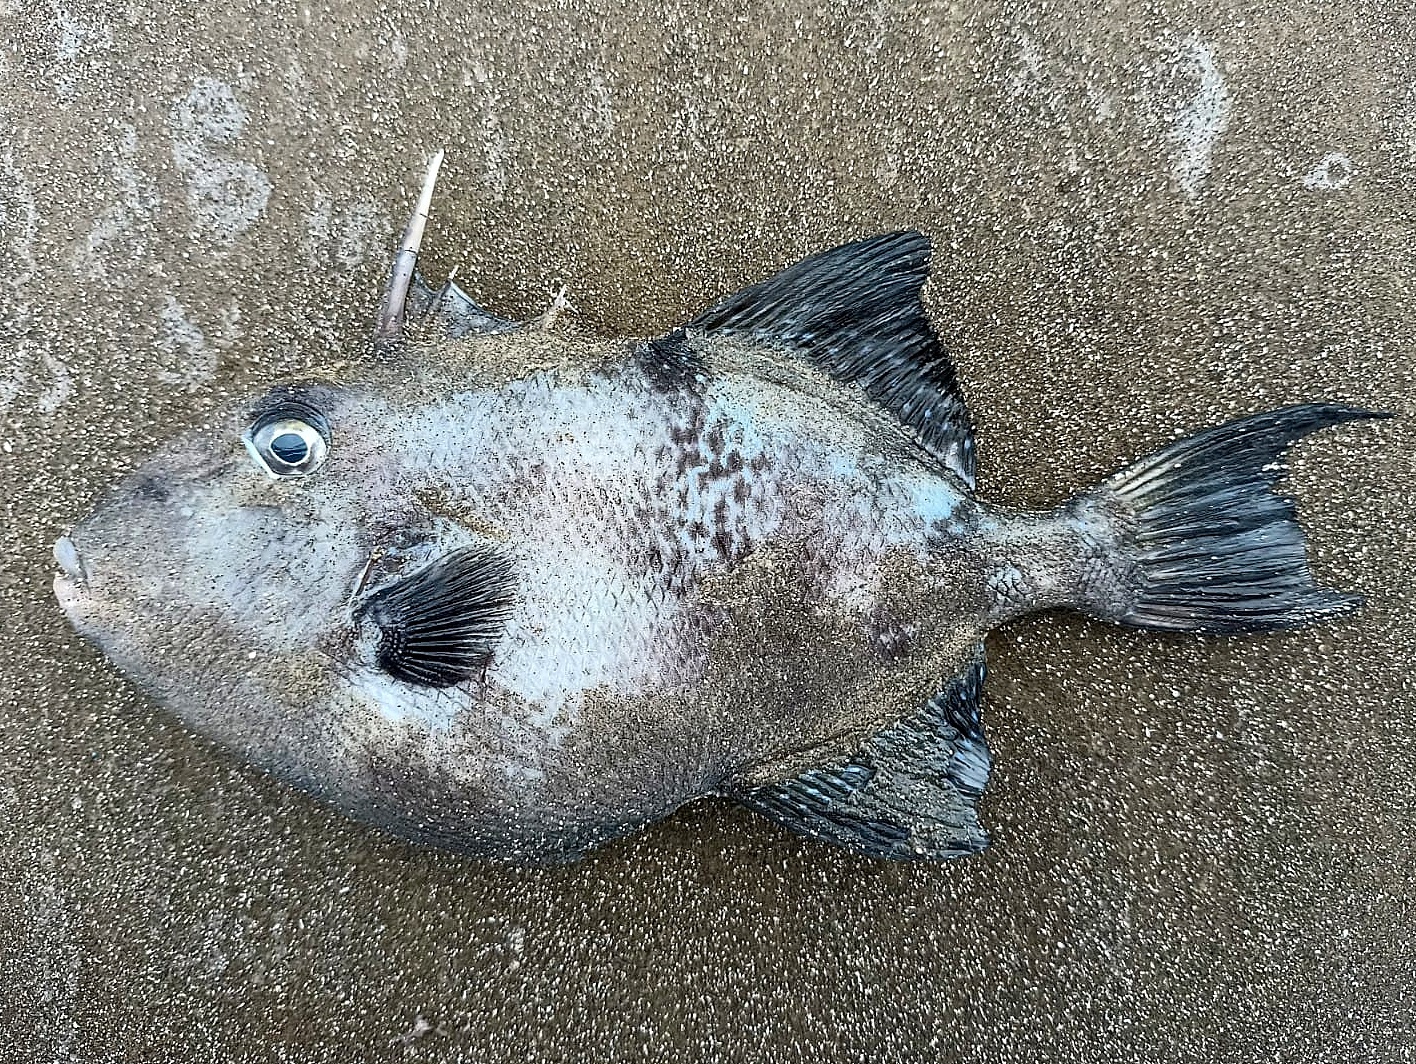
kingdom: Animalia
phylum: Chordata
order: Tetraodontiformes
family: Balistidae
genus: Balistes
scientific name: Balistes capriscus
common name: Grey triggerfish
